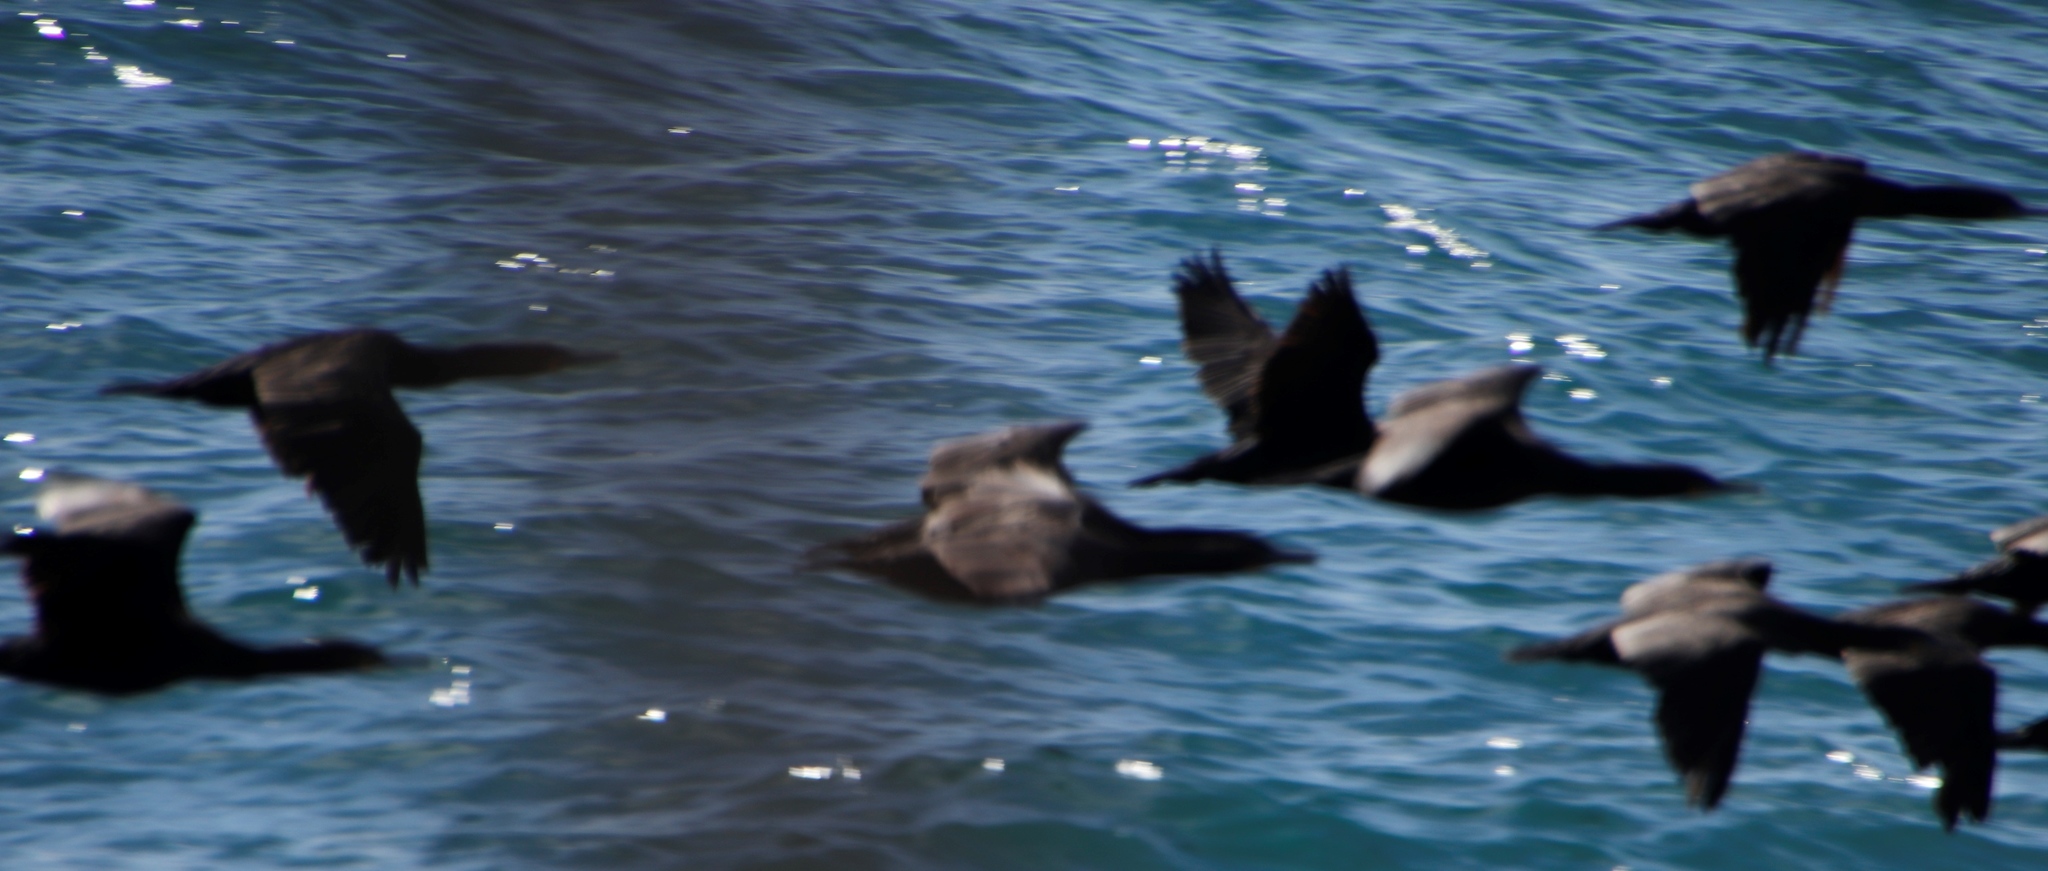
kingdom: Animalia
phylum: Chordata
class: Aves
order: Suliformes
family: Phalacrocoracidae
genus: Phalacrocorax
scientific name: Phalacrocorax capensis
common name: Cape cormorant
